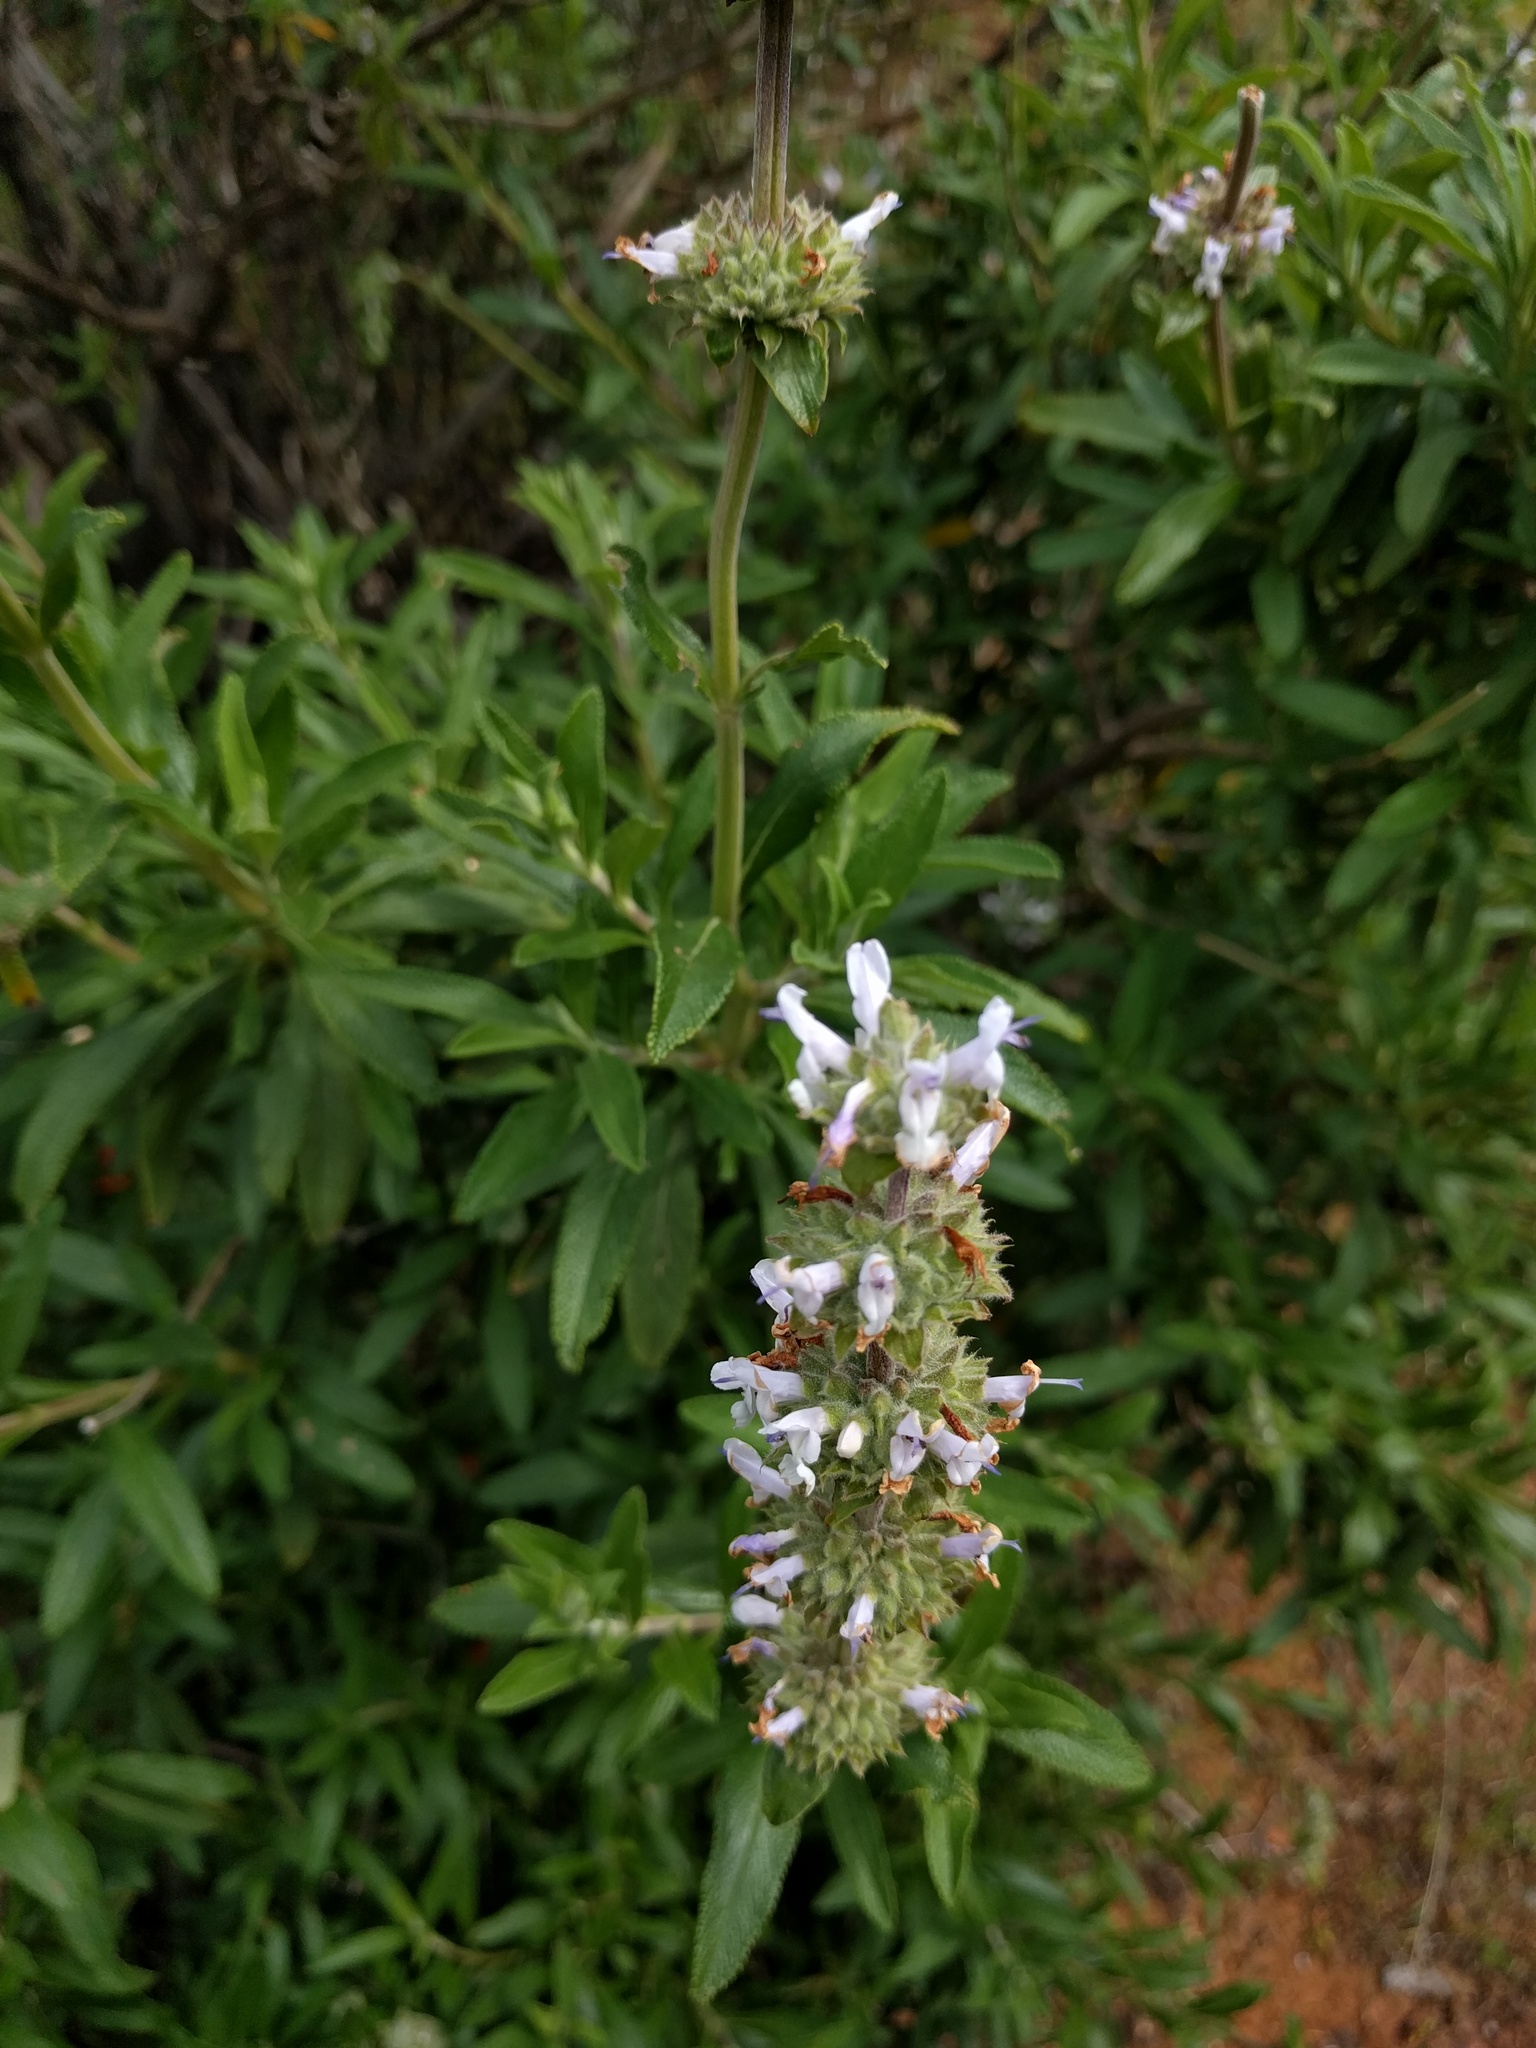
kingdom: Plantae
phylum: Tracheophyta
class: Magnoliopsida
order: Lamiales
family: Lamiaceae
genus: Salvia
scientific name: Salvia mellifera
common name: Black sage
